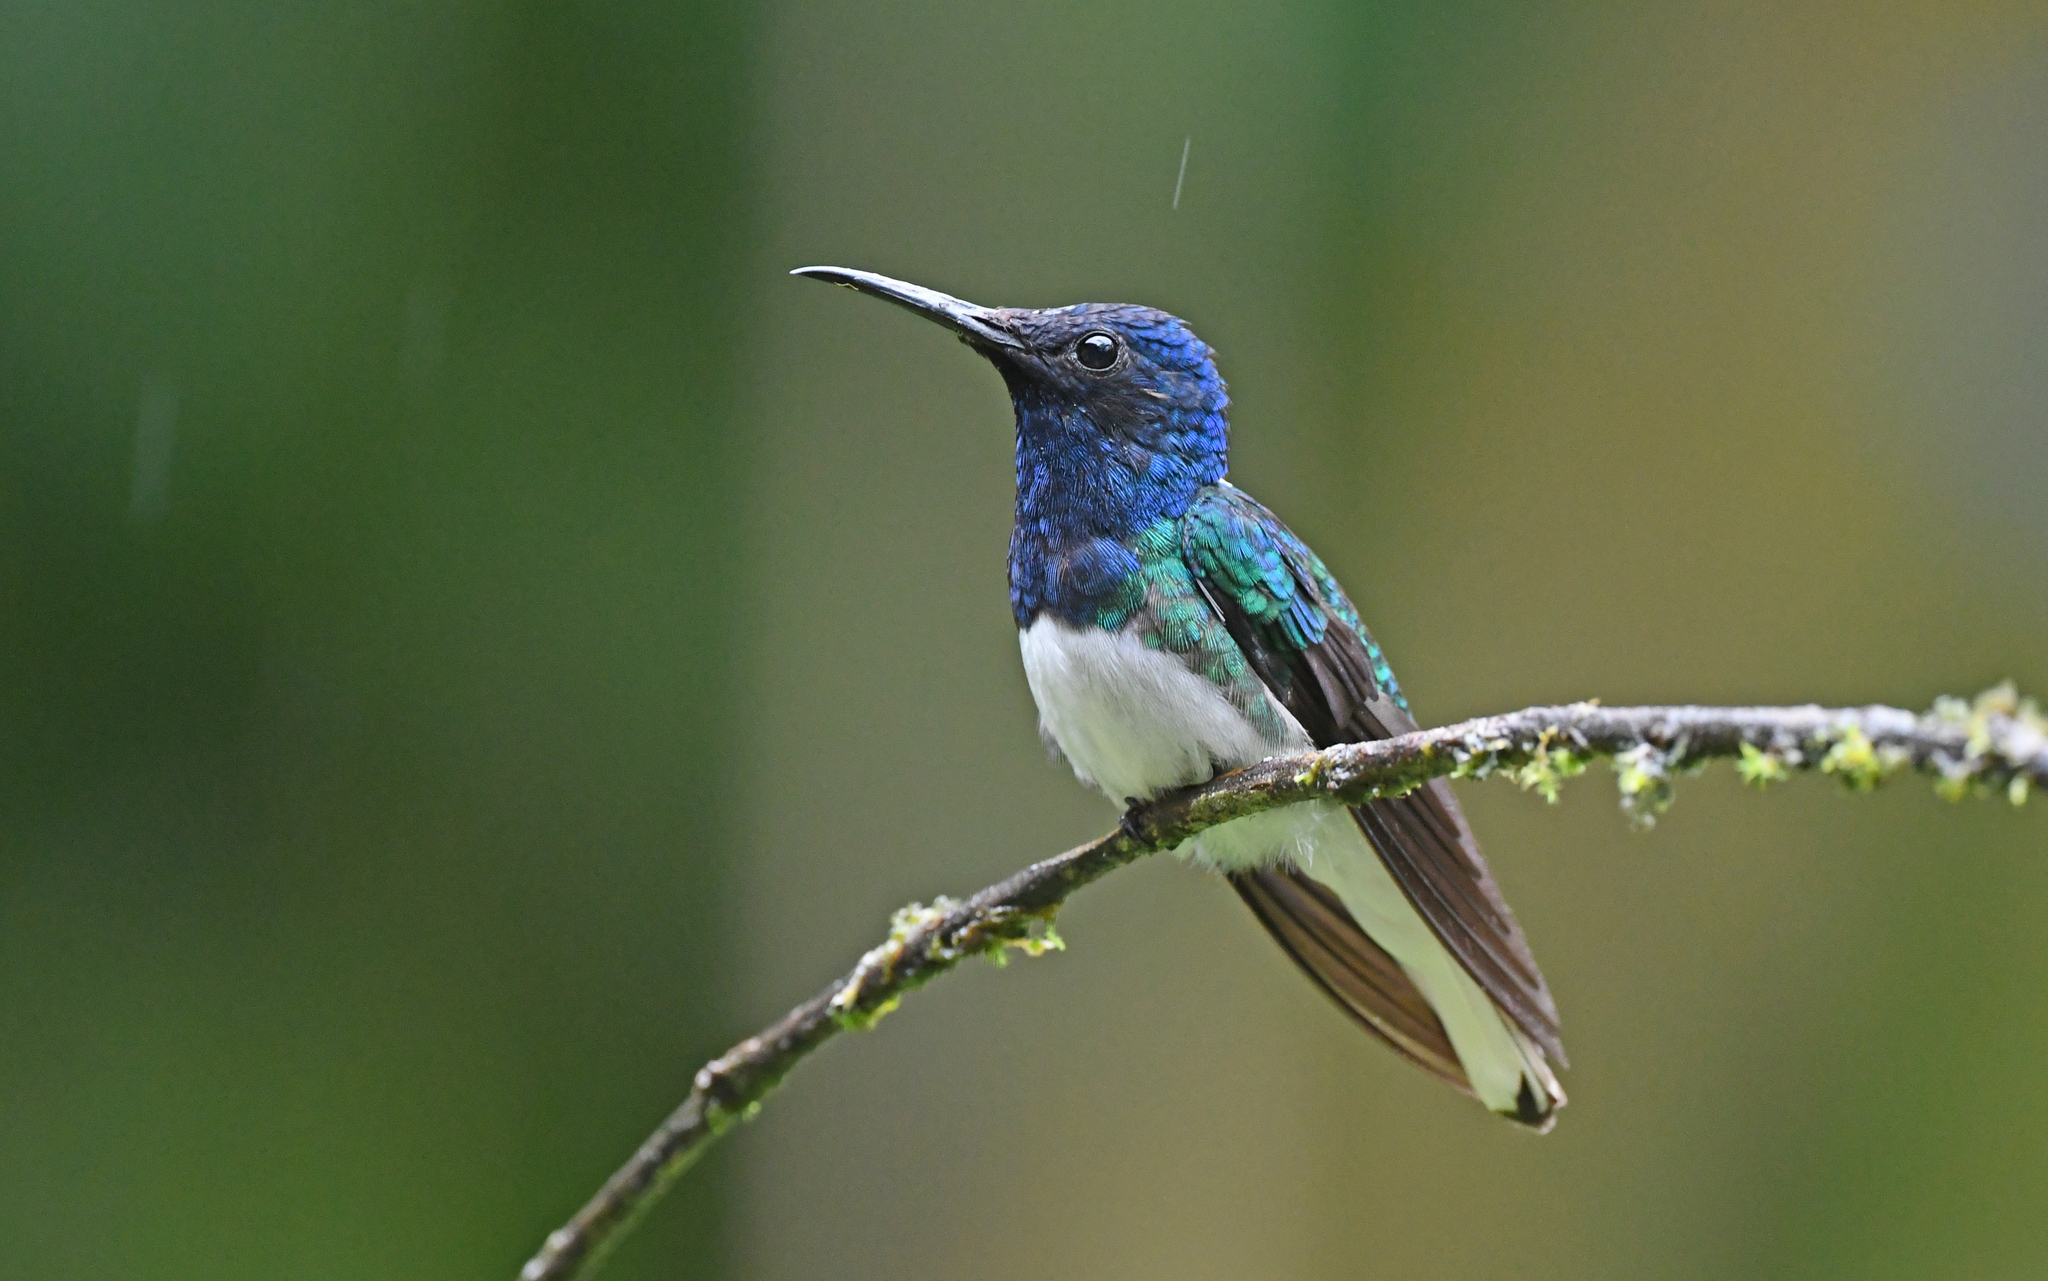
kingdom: Animalia
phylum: Chordata
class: Aves
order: Apodiformes
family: Trochilidae
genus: Florisuga
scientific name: Florisuga mellivora
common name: White-necked jacobin
